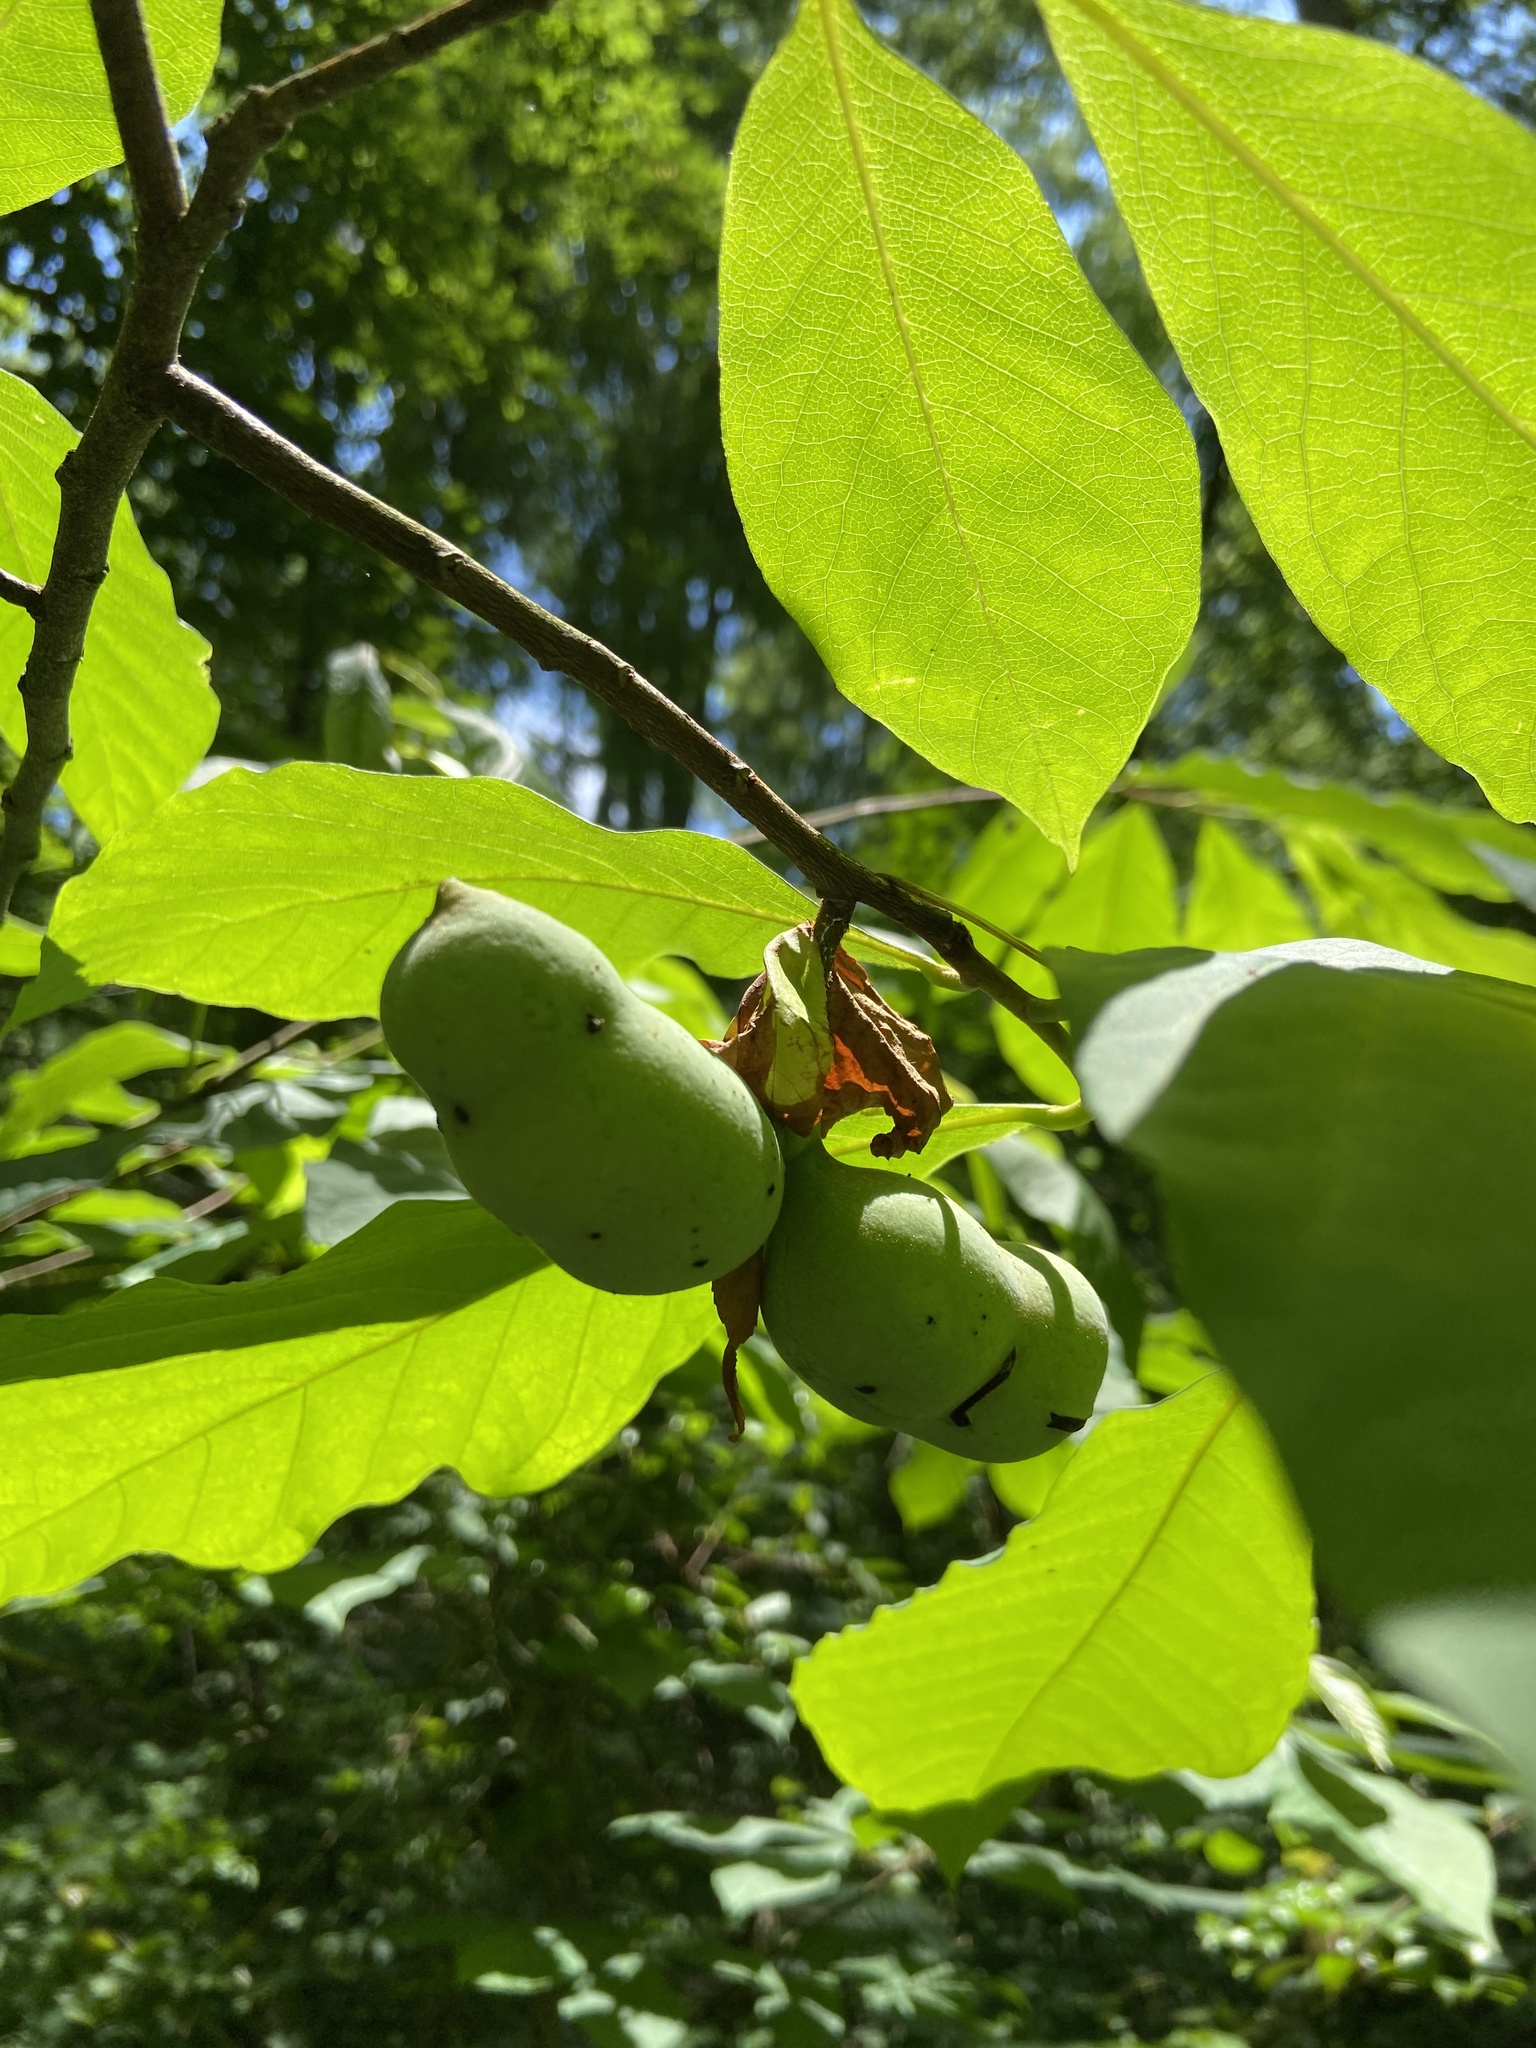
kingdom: Plantae
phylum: Tracheophyta
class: Magnoliopsida
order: Magnoliales
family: Annonaceae
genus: Asimina
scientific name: Asimina triloba
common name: Dog-banana
